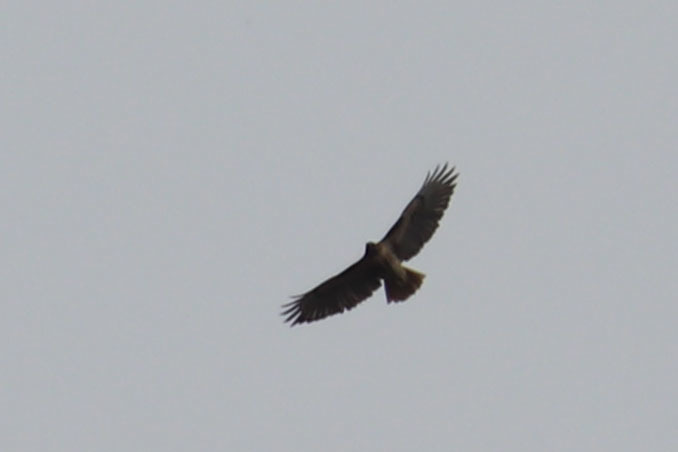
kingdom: Animalia
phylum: Chordata
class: Aves
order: Accipitriformes
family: Accipitridae
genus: Buteo
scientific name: Buteo jamaicensis
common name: Red-tailed hawk
